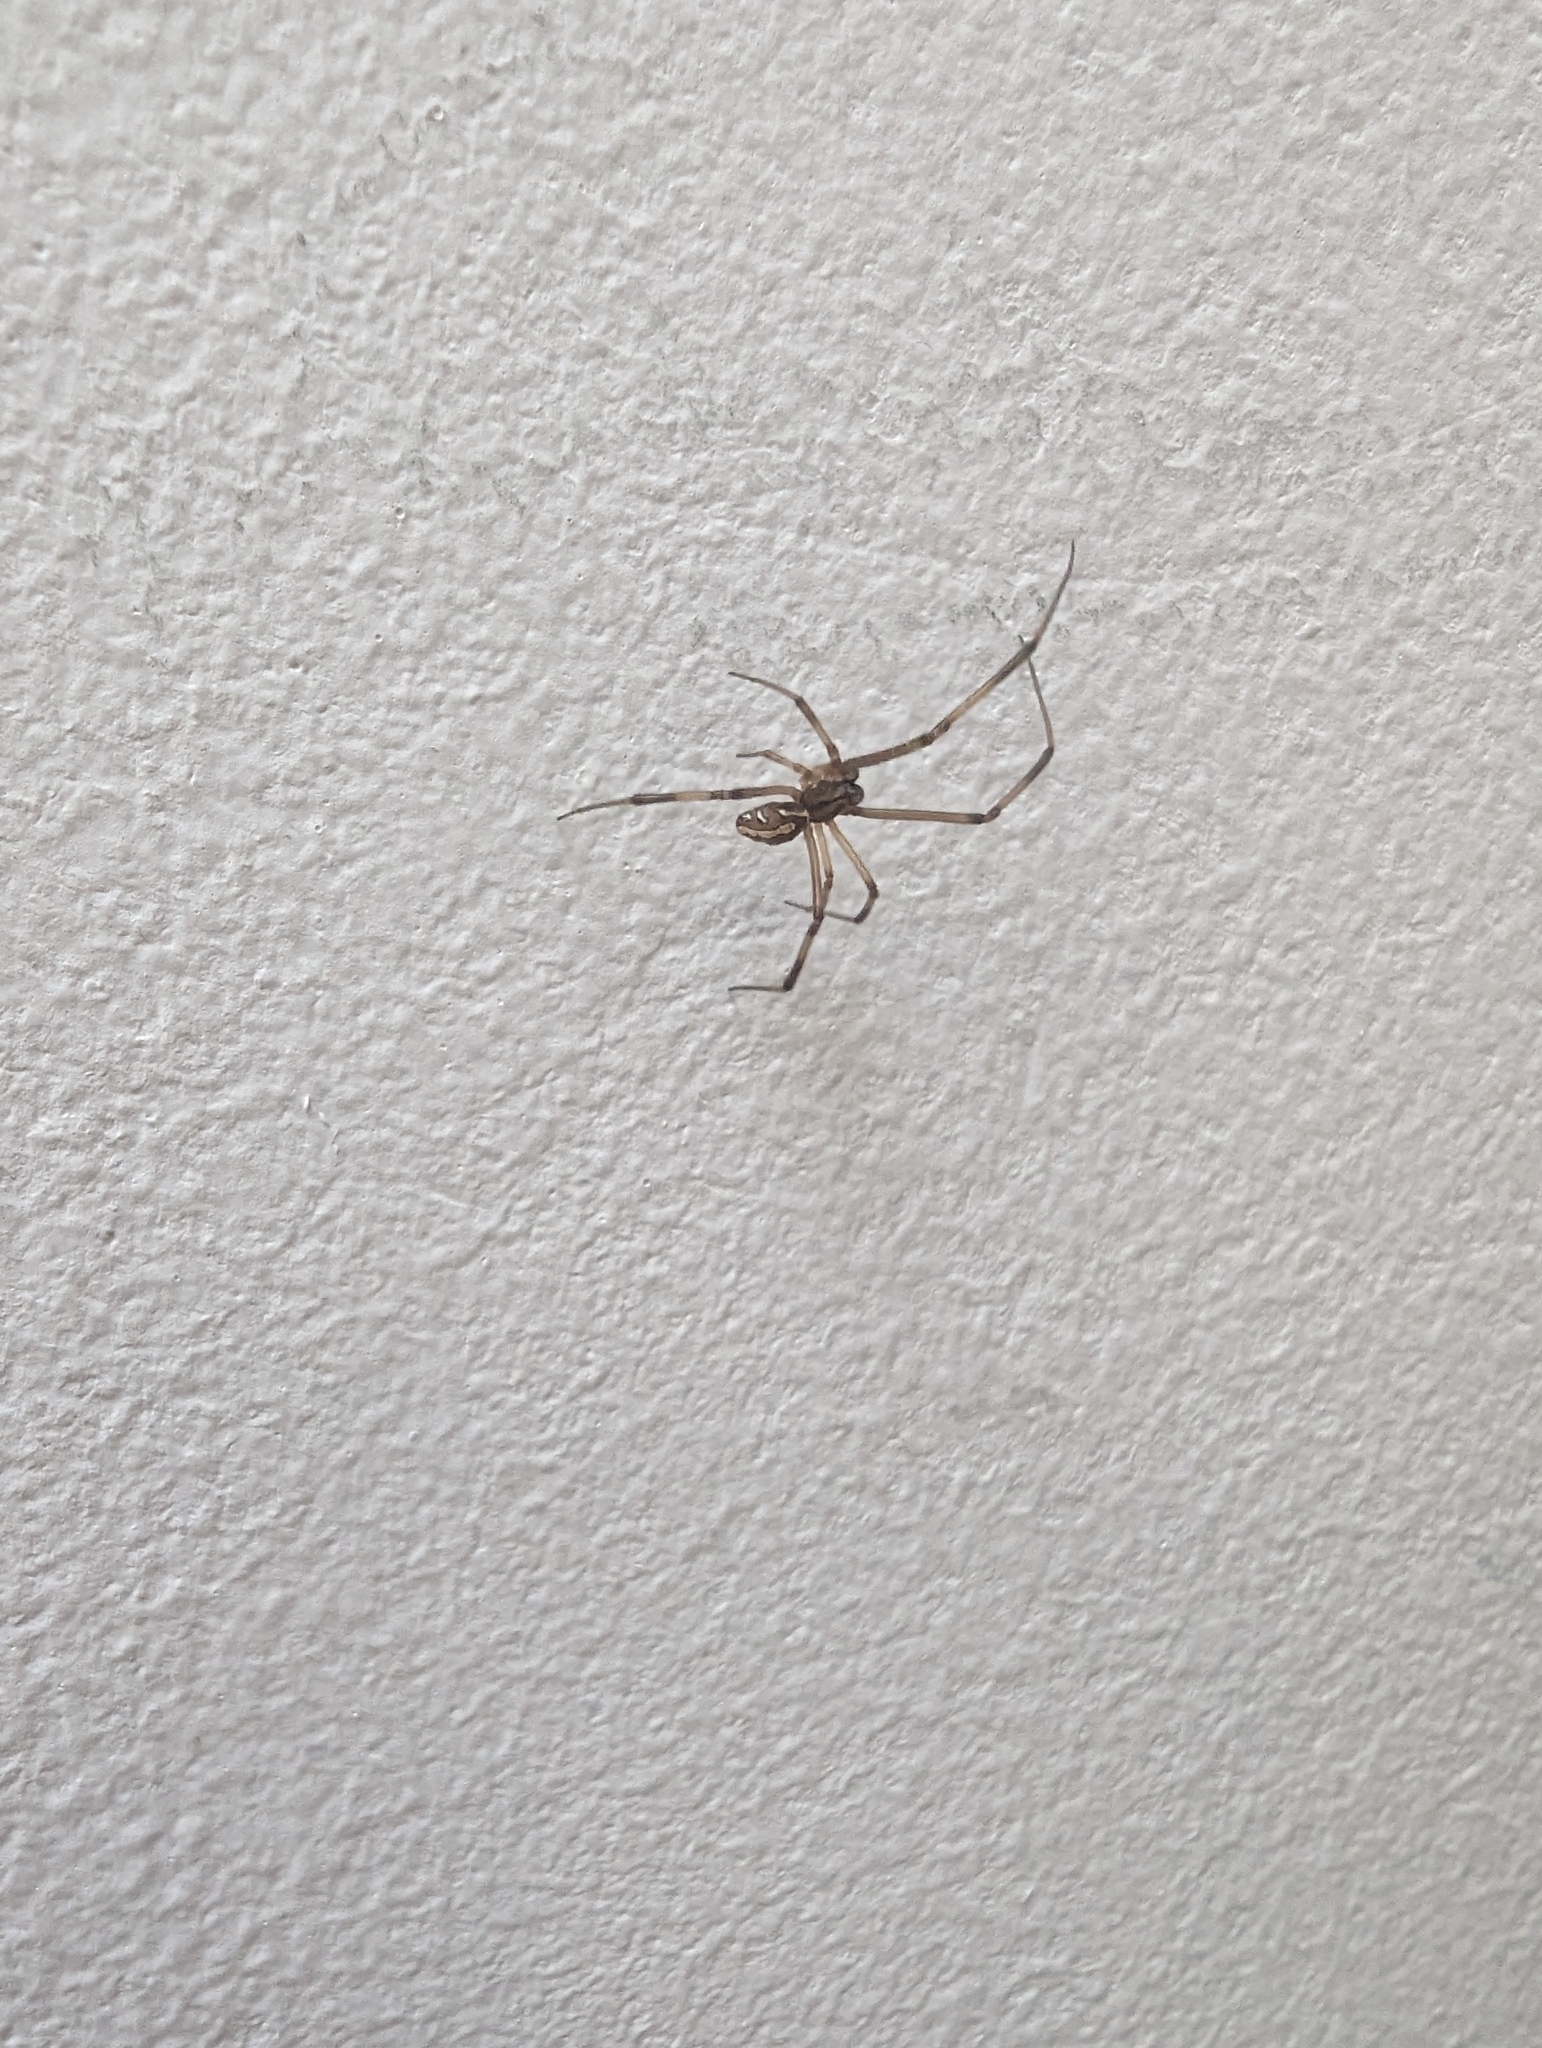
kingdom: Animalia
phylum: Arthropoda
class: Arachnida
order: Araneae
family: Theridiidae
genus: Latrodectus
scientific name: Latrodectus hesperus
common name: Western black widow
